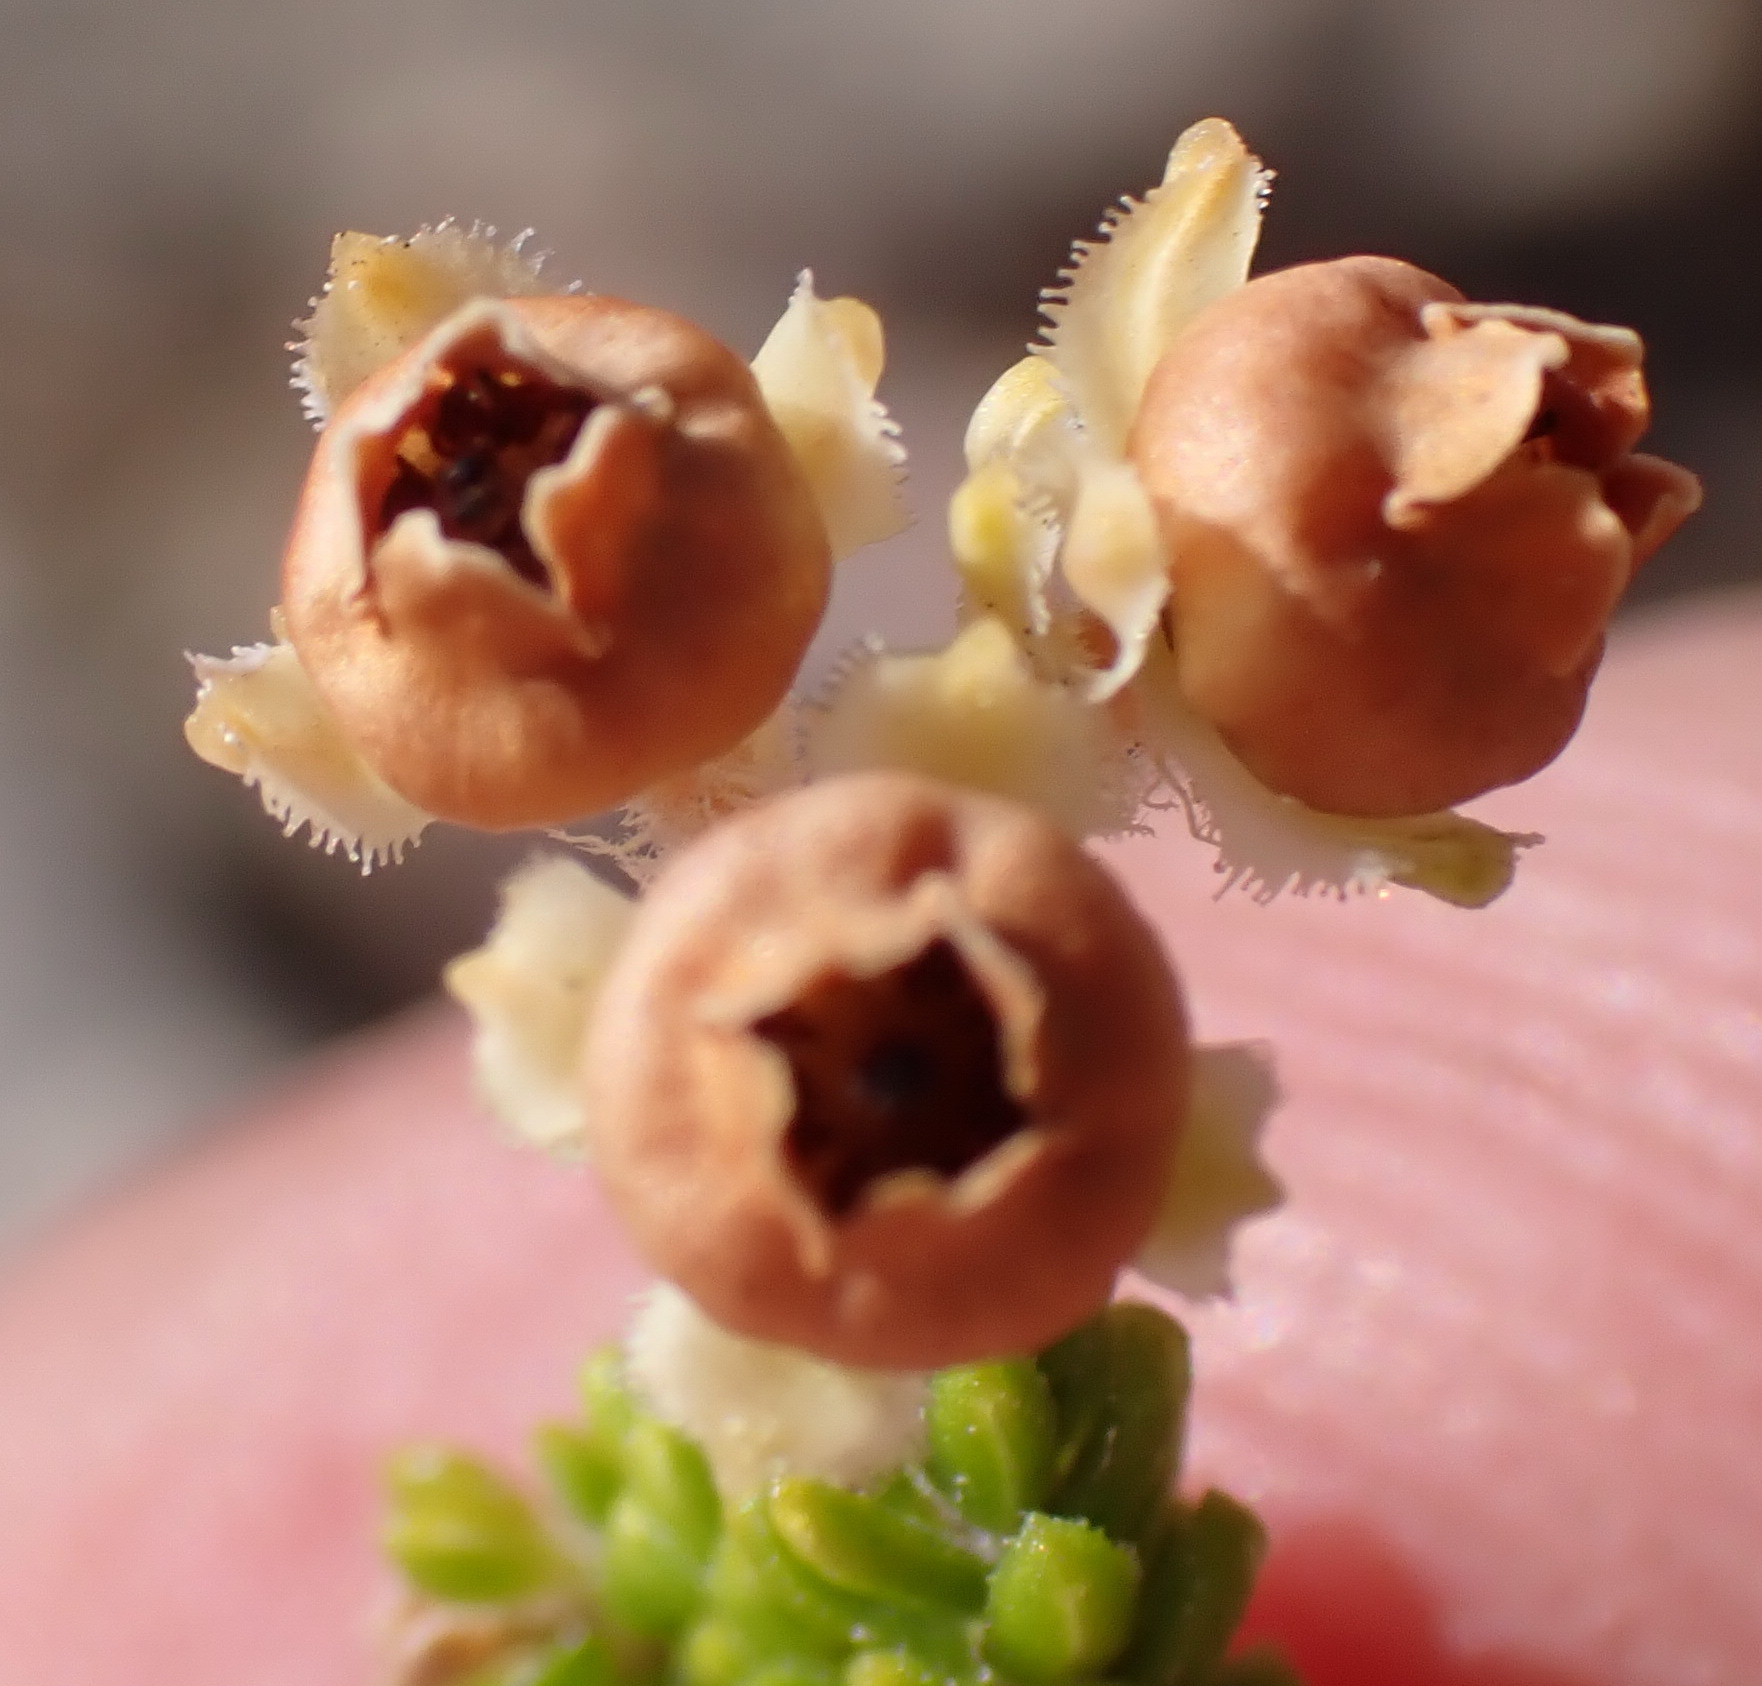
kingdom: Plantae
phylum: Tracheophyta
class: Magnoliopsida
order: Ericales
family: Ericaceae
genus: Erica
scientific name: Erica fimbriata
